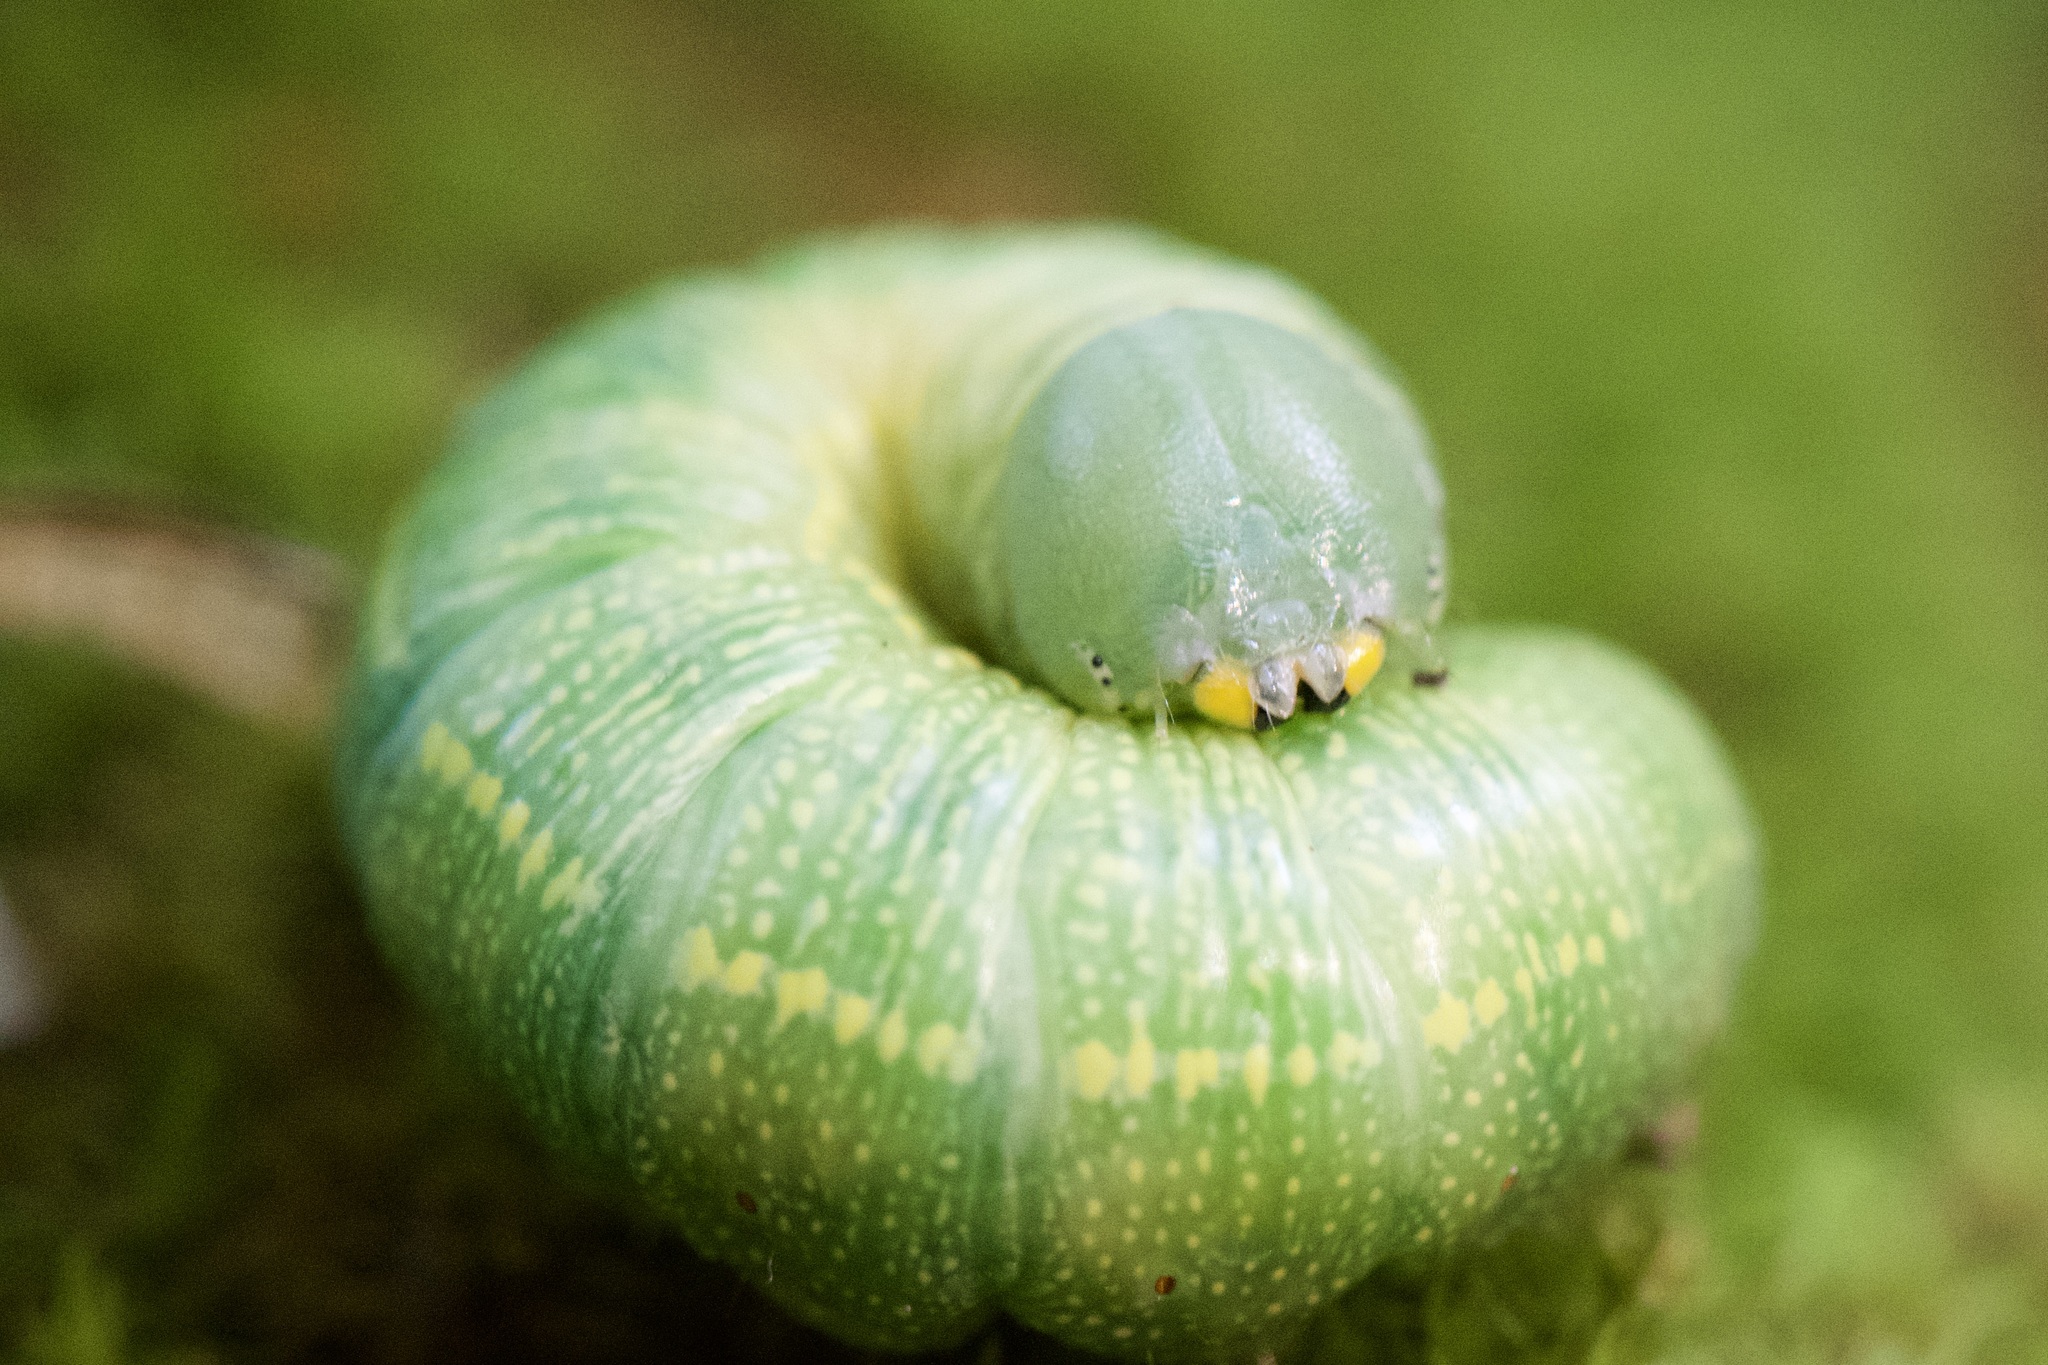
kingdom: Animalia
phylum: Arthropoda
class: Insecta
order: Lepidoptera
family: Notodontidae
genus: Nadata
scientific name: Nadata gibbosa
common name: White-dotted prominent
